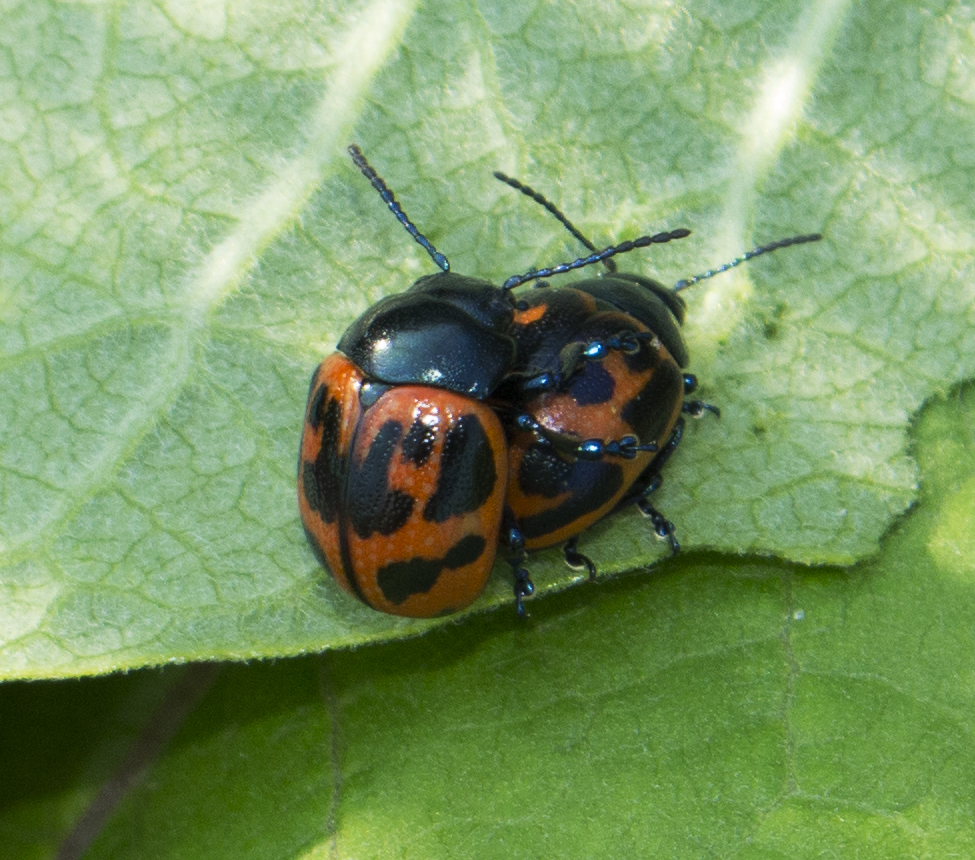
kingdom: Animalia
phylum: Arthropoda
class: Insecta
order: Coleoptera
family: Chrysomelidae
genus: Labidomera
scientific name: Labidomera clivicollis
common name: Swamp milkweed leaf beetle
